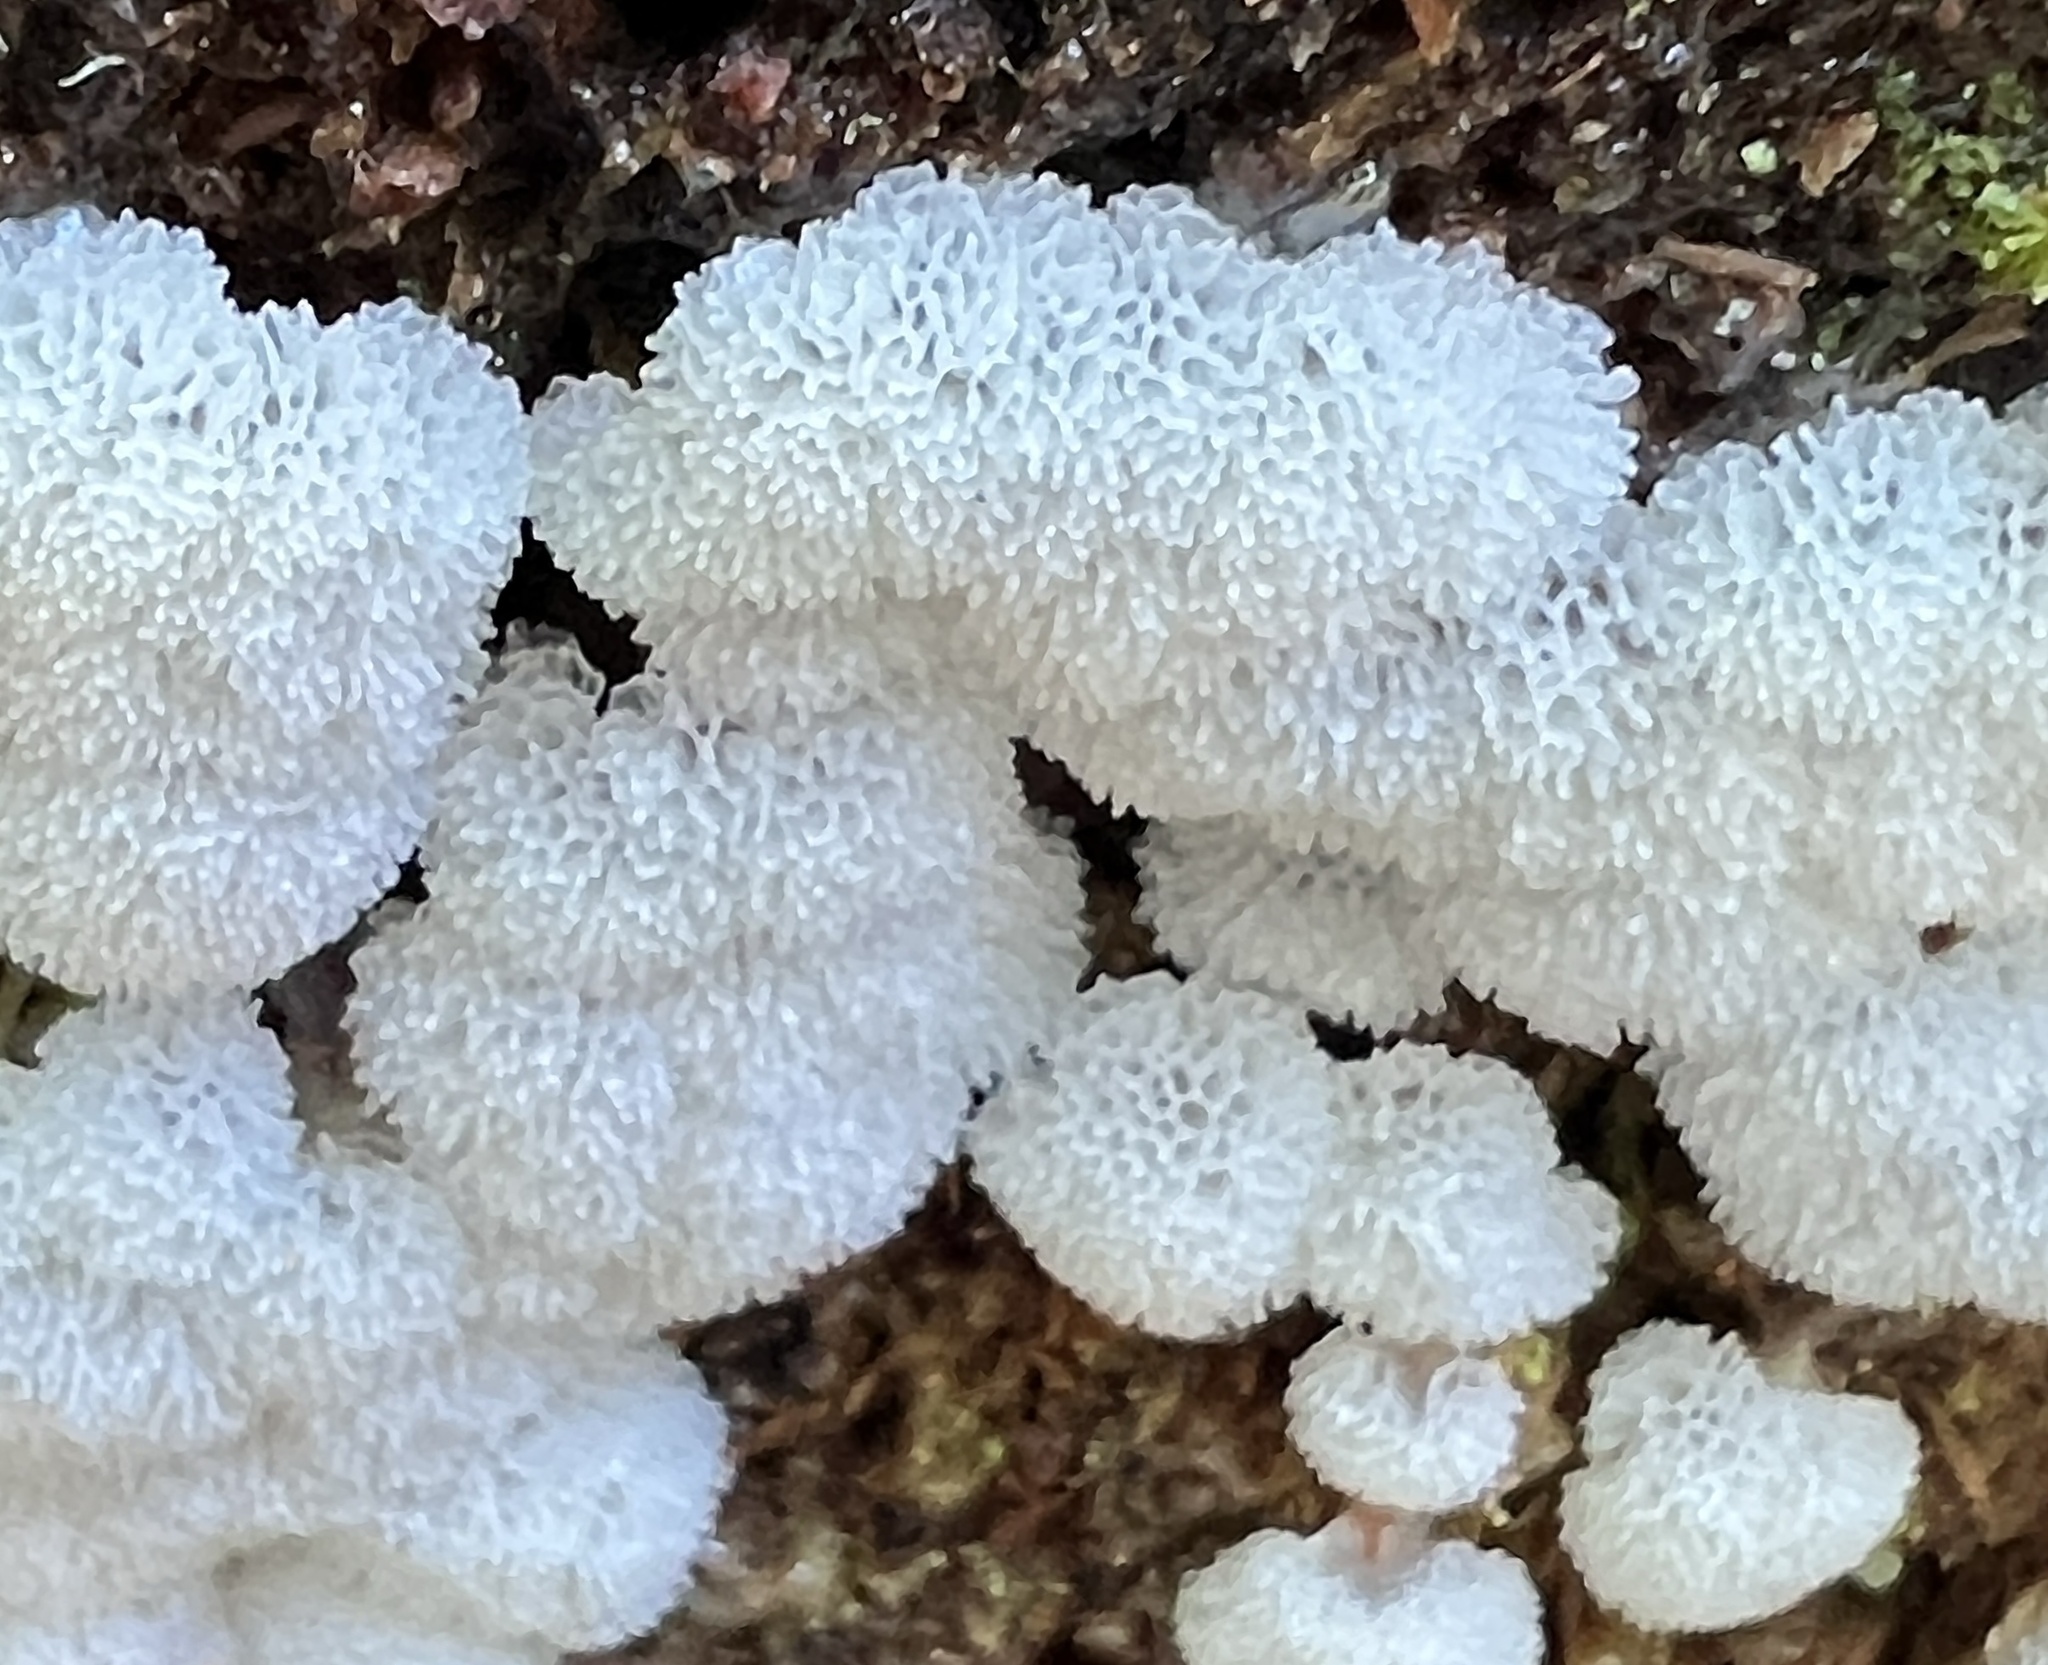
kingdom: Protozoa
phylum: Mycetozoa
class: Protosteliomycetes
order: Ceratiomyxales
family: Ceratiomyxaceae
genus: Ceratiomyxa
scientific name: Ceratiomyxa fruticulosa
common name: Honeycomb coral slime mold
